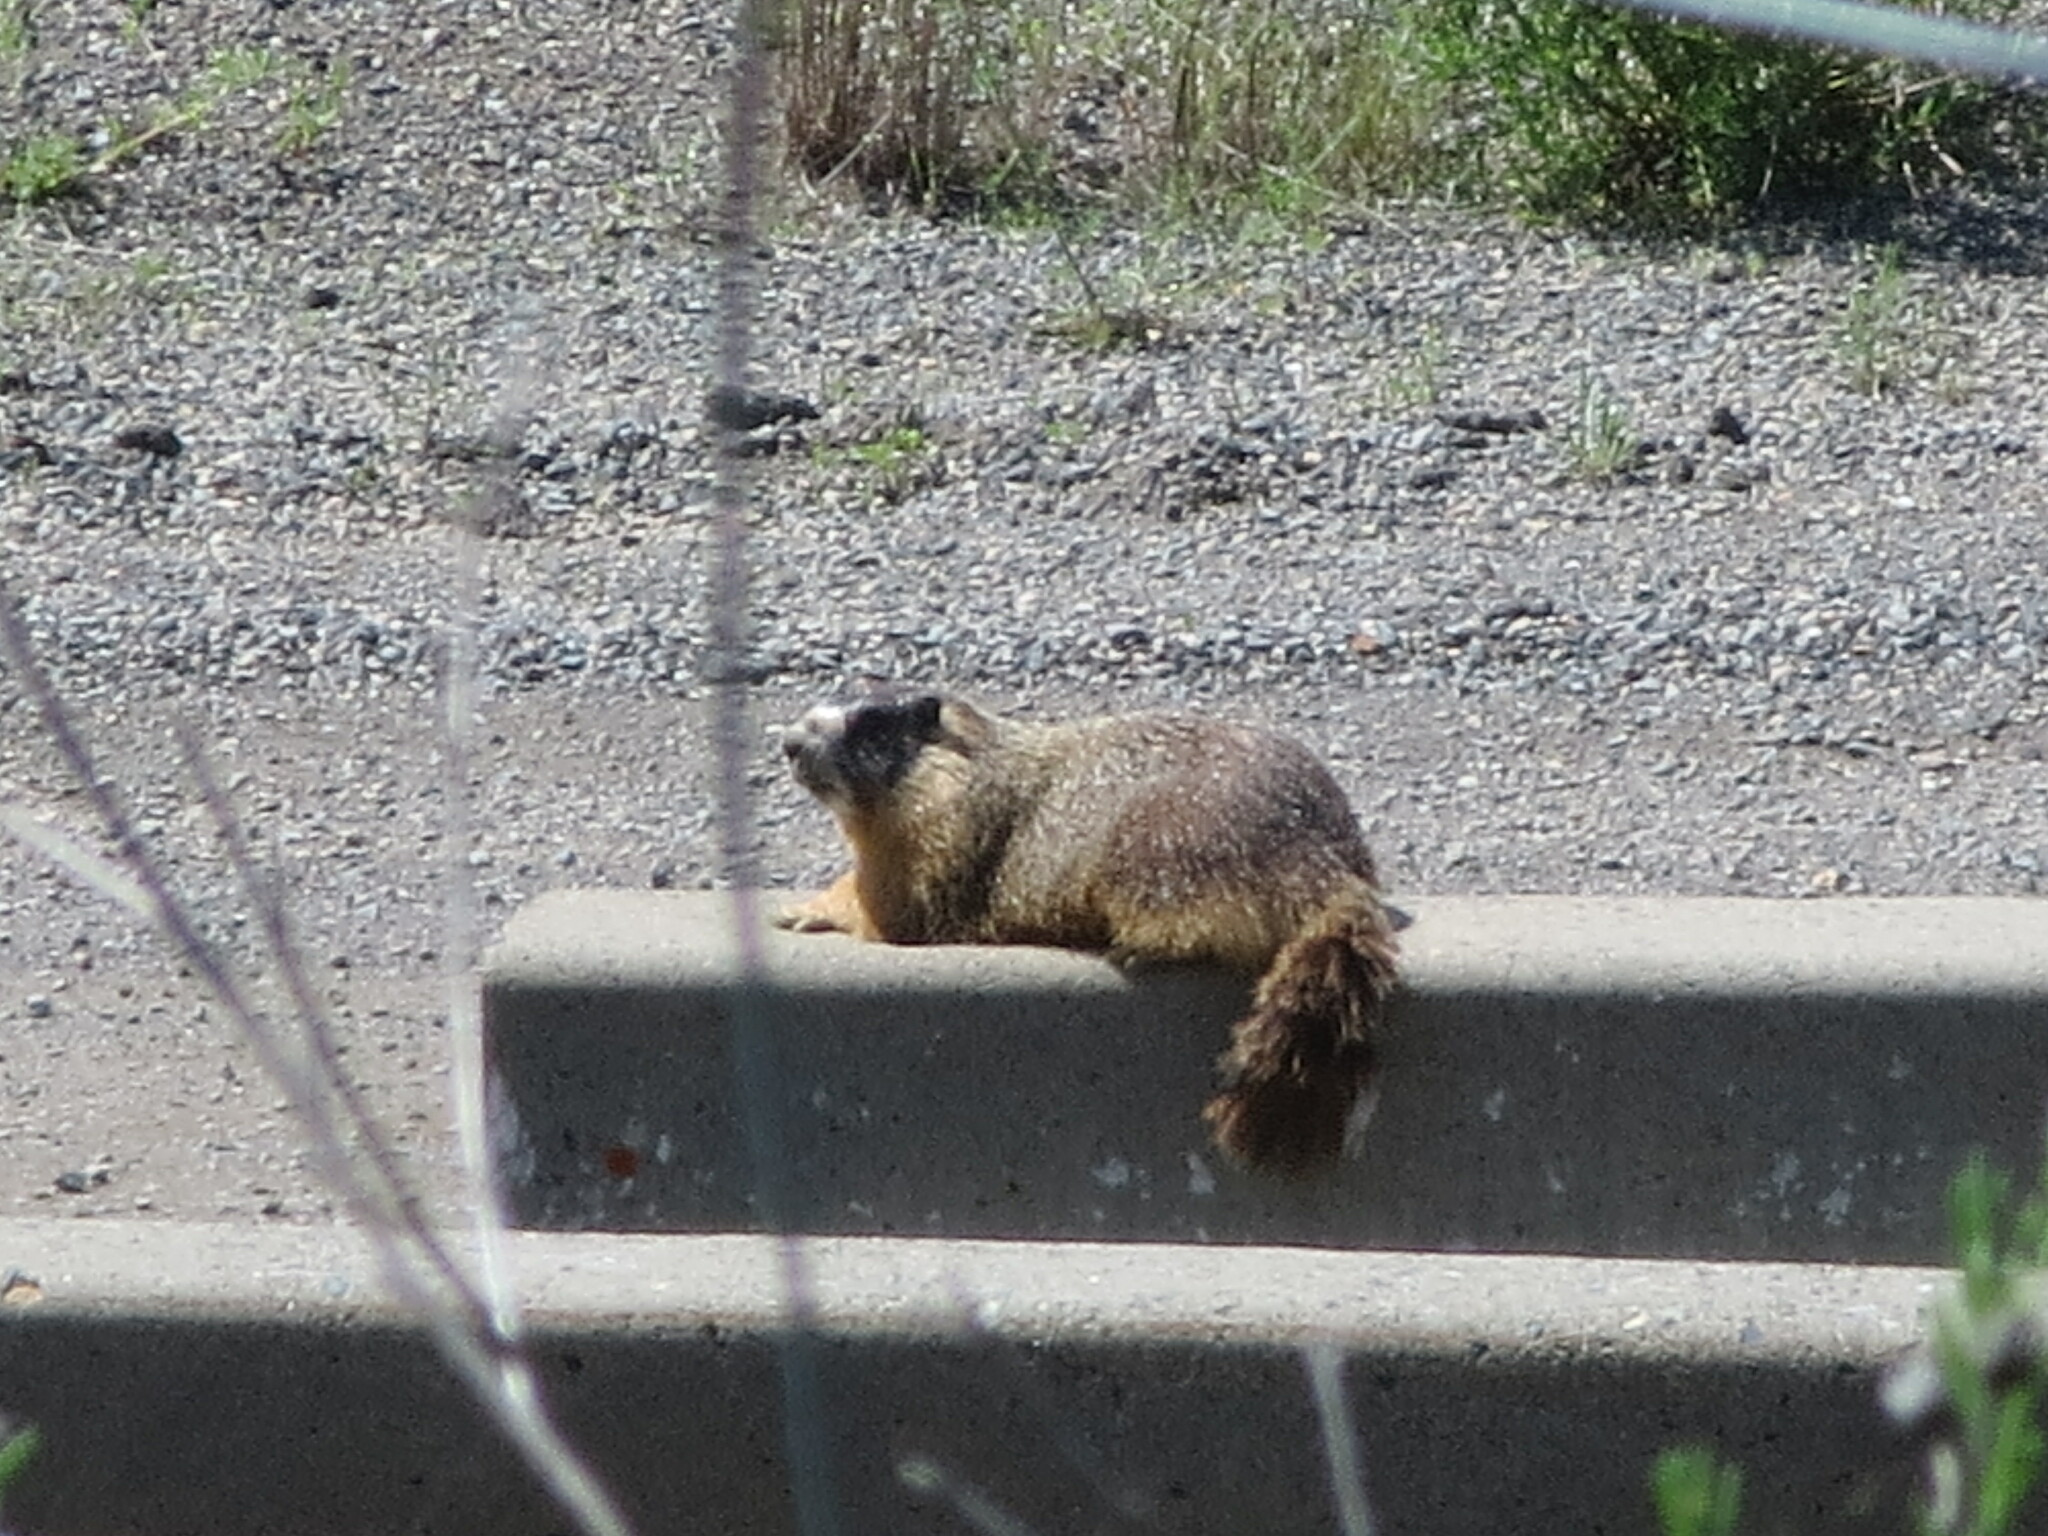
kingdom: Animalia
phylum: Chordata
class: Mammalia
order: Rodentia
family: Sciuridae
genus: Marmota
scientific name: Marmota flaviventris
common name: Yellow-bellied marmot
